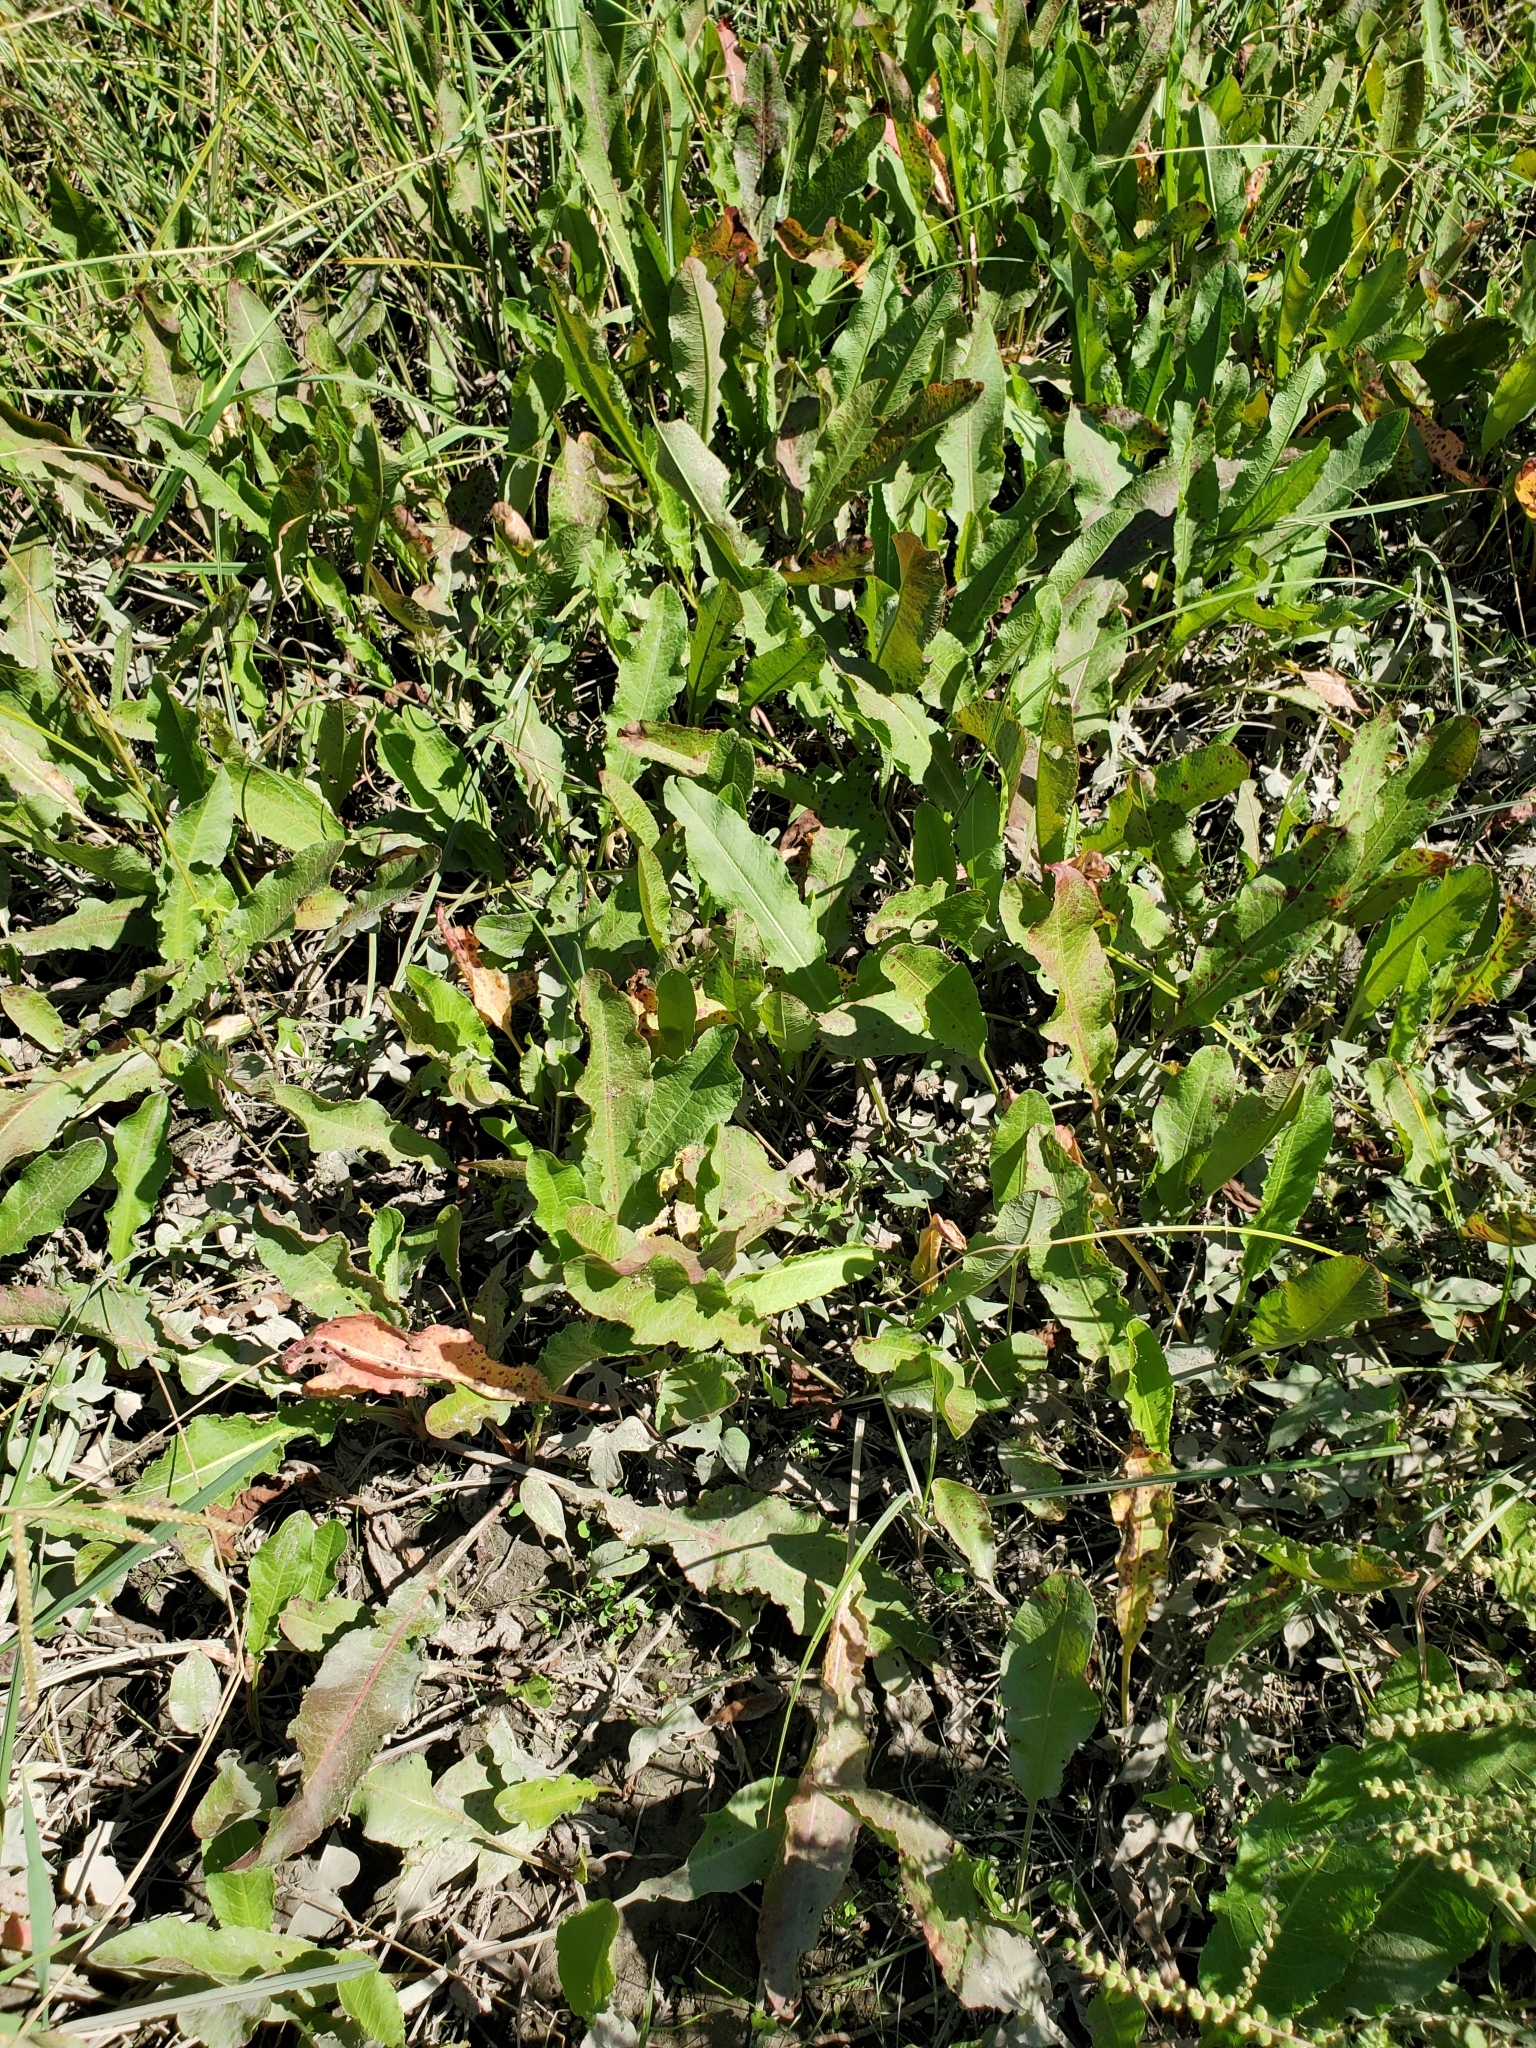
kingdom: Plantae
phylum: Tracheophyta
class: Magnoliopsida
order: Caryophyllales
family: Polygonaceae
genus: Rumex
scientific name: Rumex crispus
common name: Curled dock
